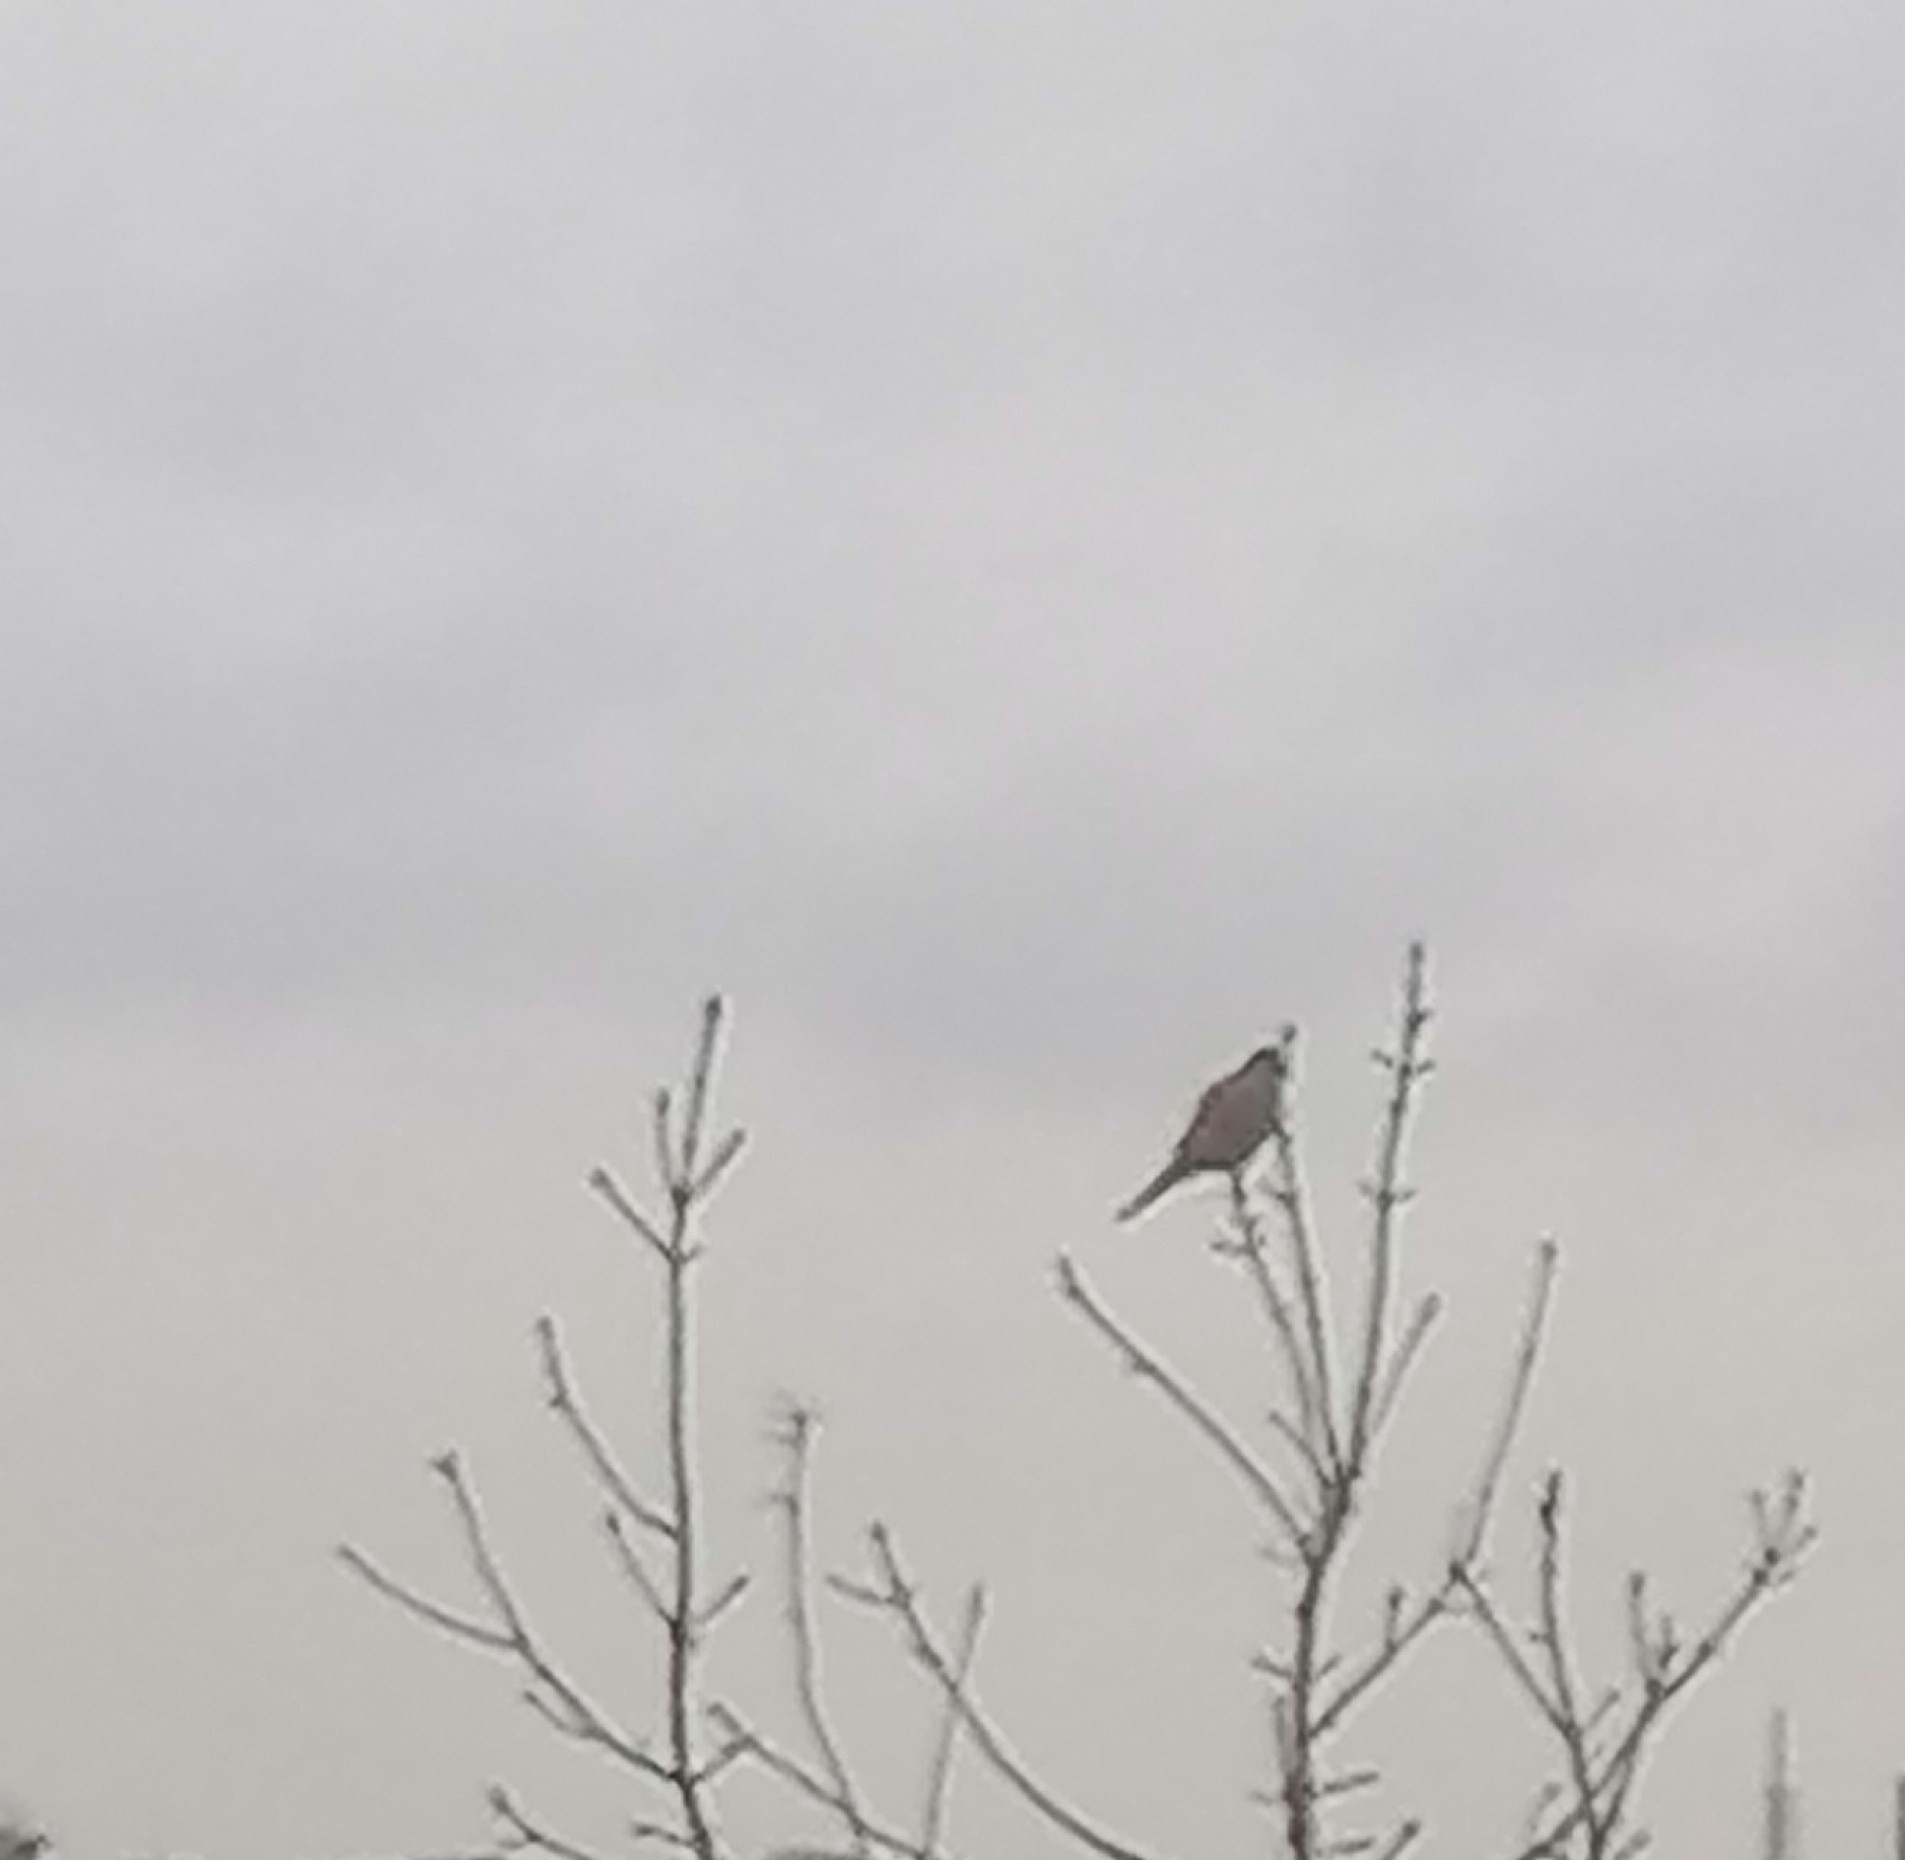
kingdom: Animalia
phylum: Chordata
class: Aves
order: Falconiformes
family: Falconidae
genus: Falco
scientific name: Falco tinnunculus
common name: Common kestrel
